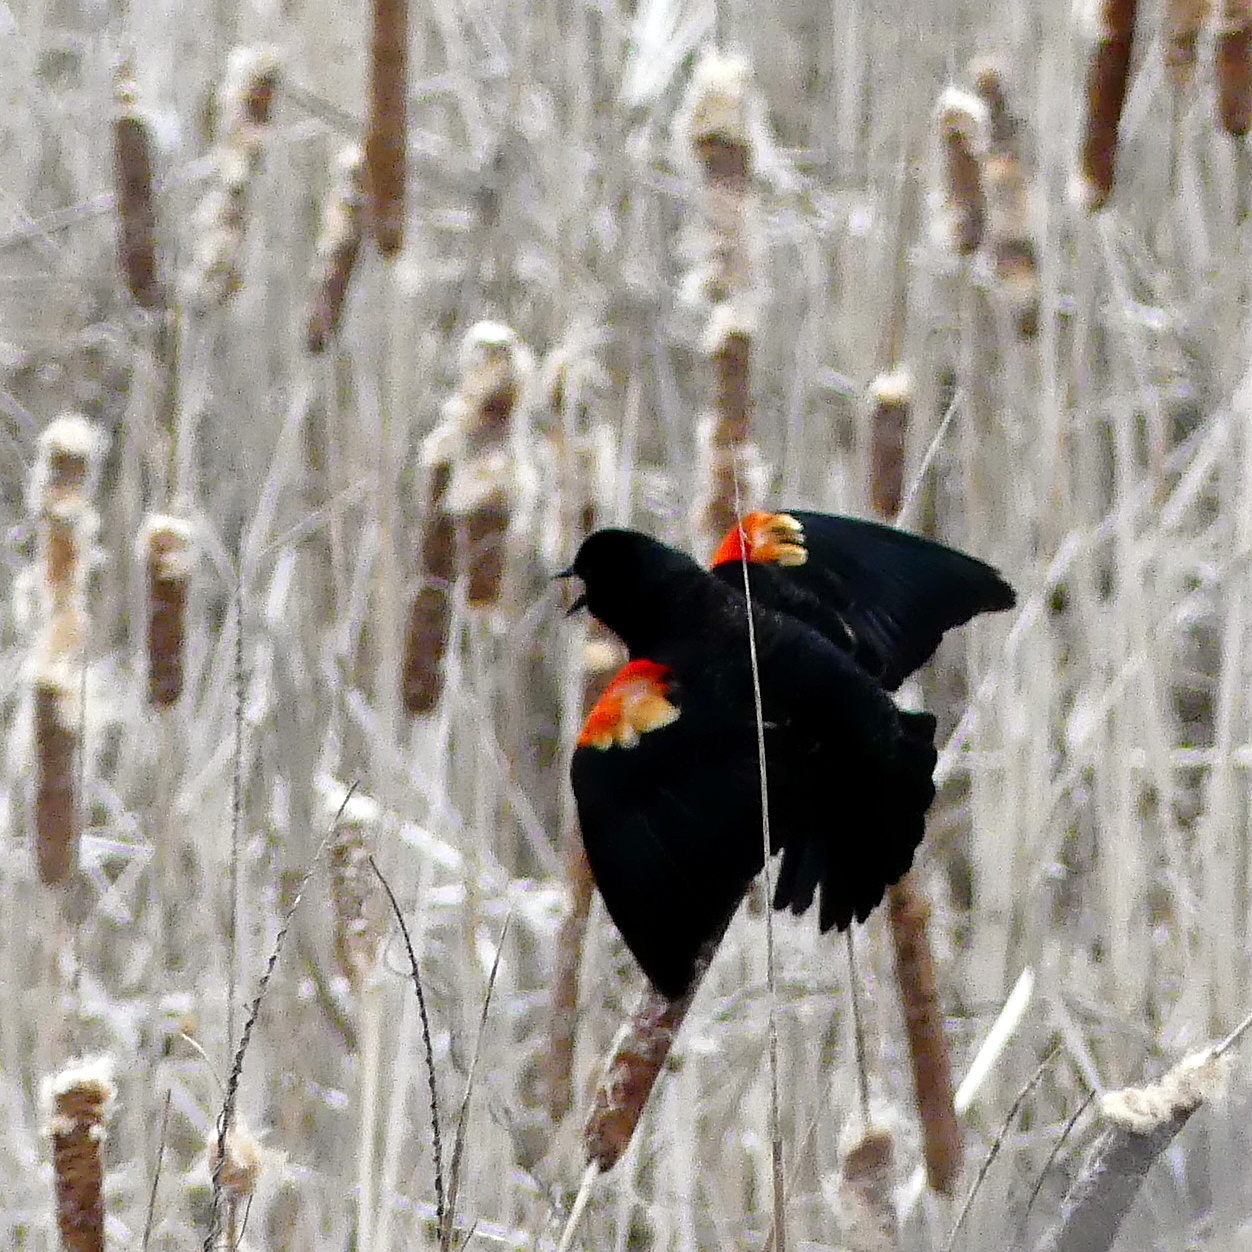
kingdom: Animalia
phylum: Chordata
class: Aves
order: Passeriformes
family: Icteridae
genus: Agelaius
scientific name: Agelaius phoeniceus
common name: Red-winged blackbird
